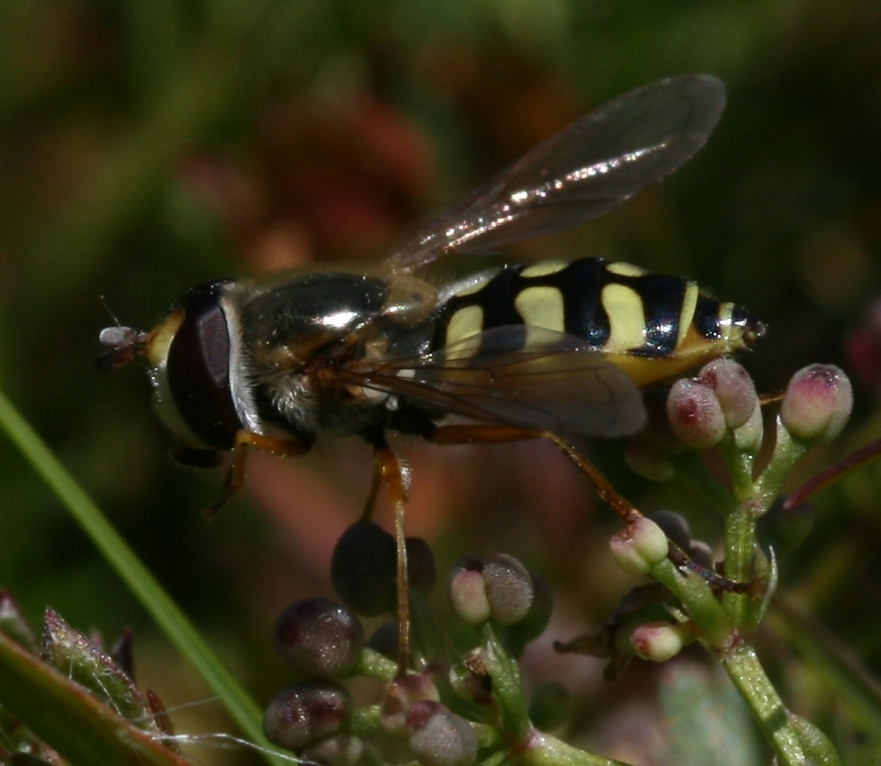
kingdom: Animalia
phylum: Arthropoda
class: Insecta
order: Diptera
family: Syrphidae
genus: Eupeodes
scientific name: Eupeodes corollae
